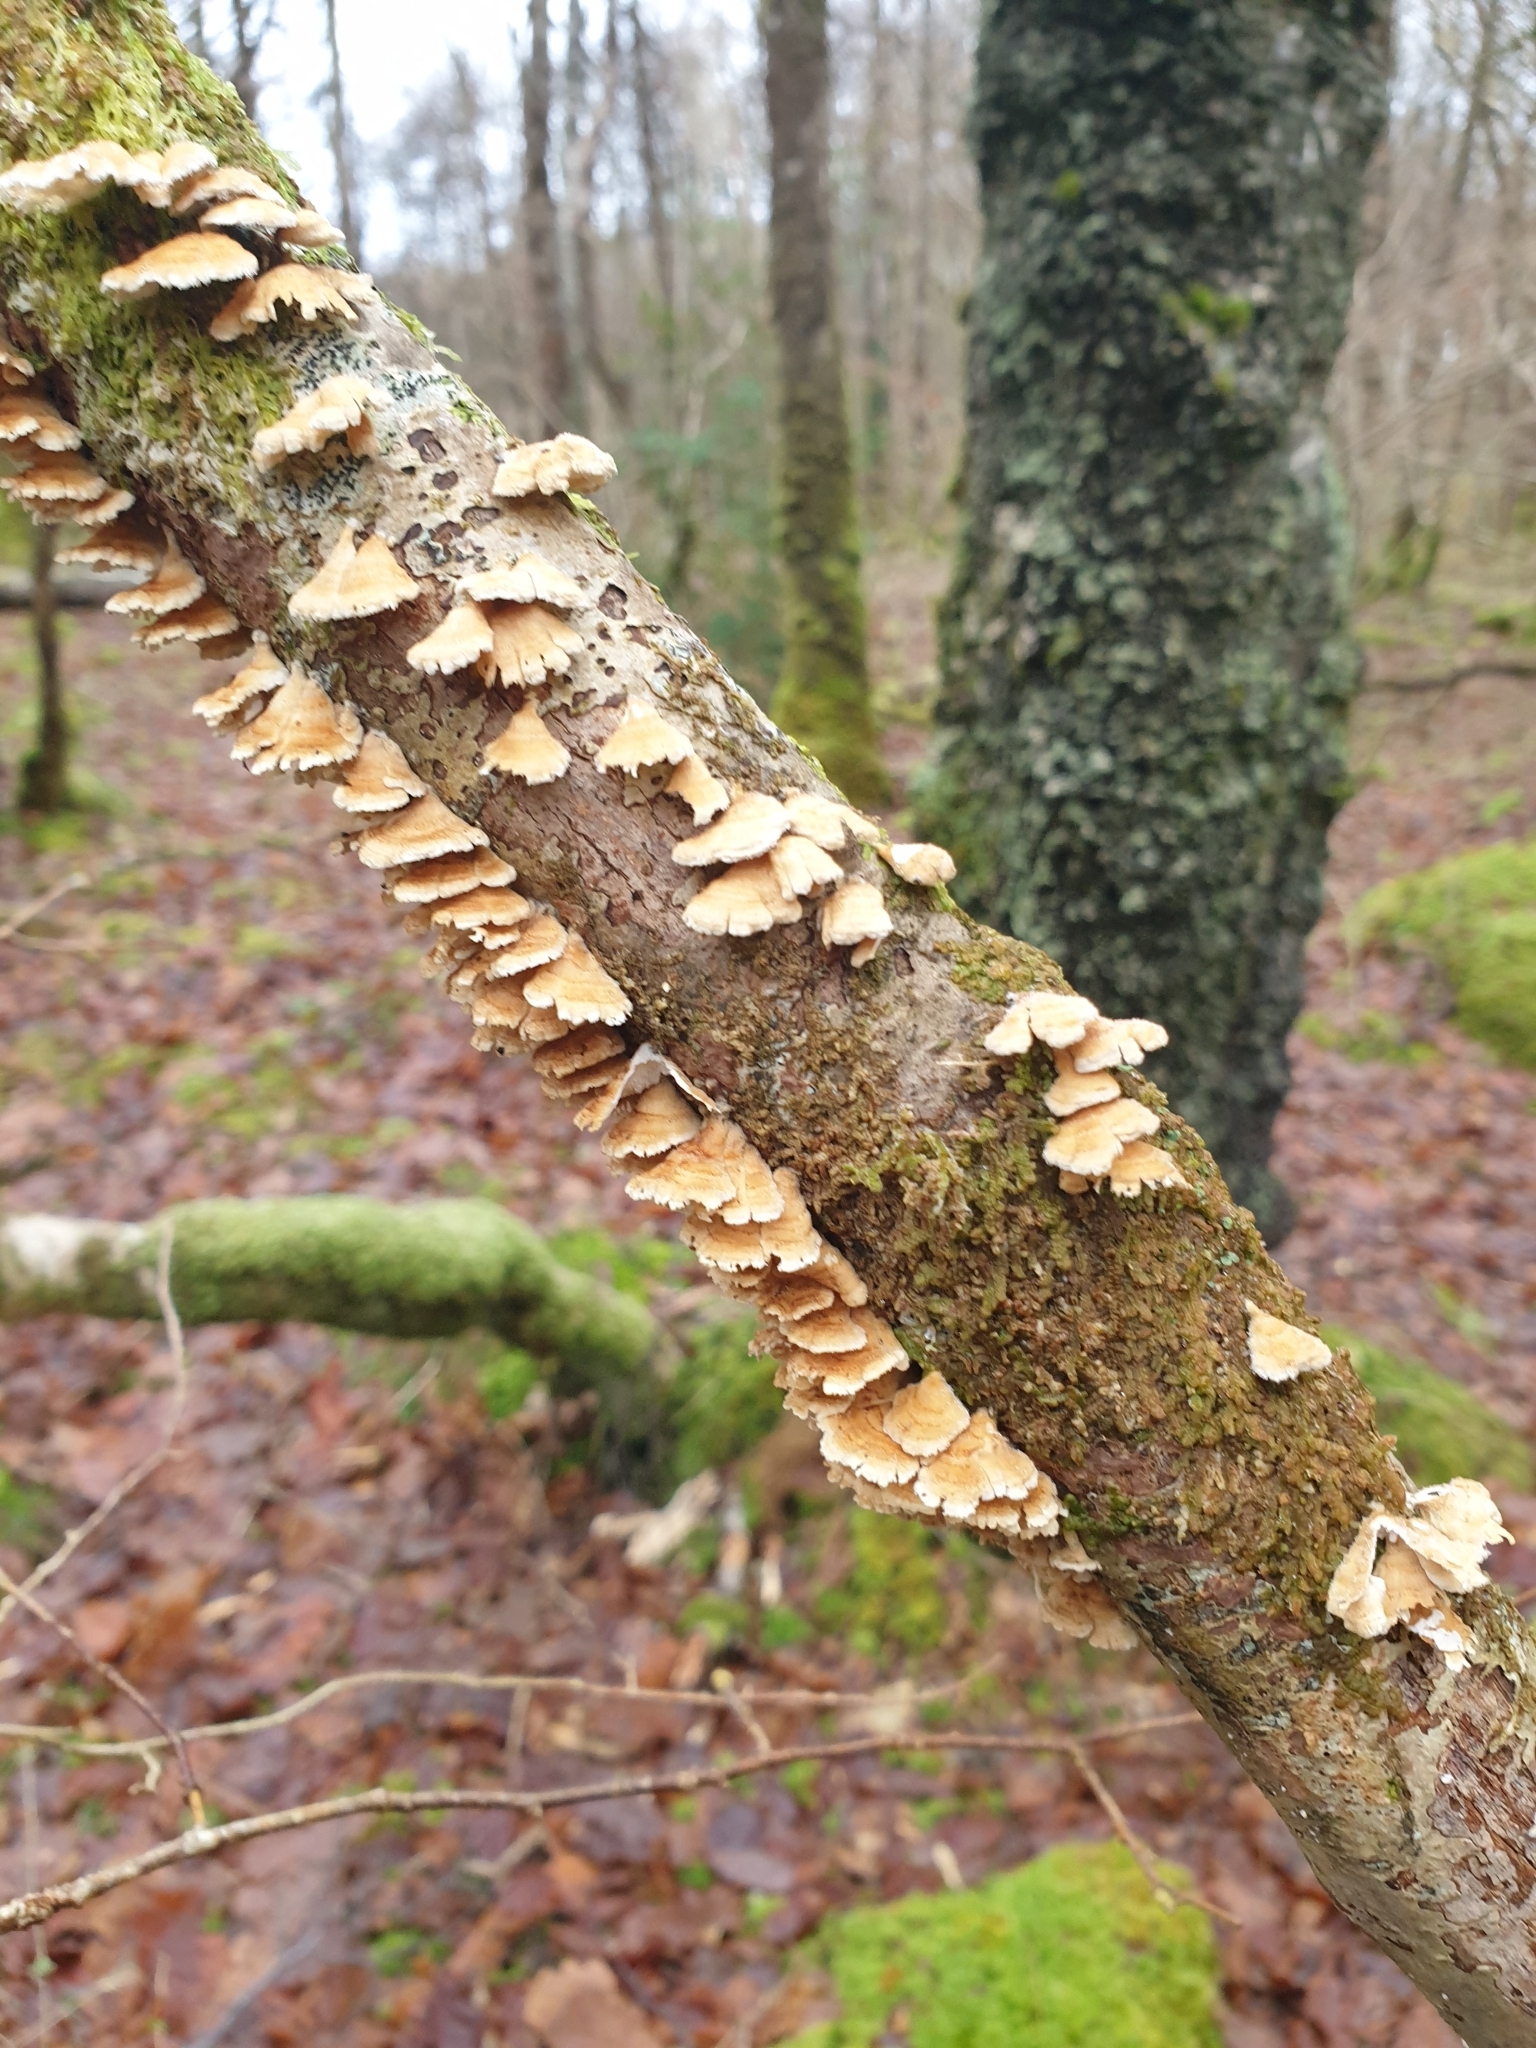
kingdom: Fungi
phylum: Basidiomycota
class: Agaricomycetes
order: Amylocorticiales
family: Amylocorticiaceae
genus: Plicaturopsis
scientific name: Plicaturopsis crispa
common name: Crimped gill
